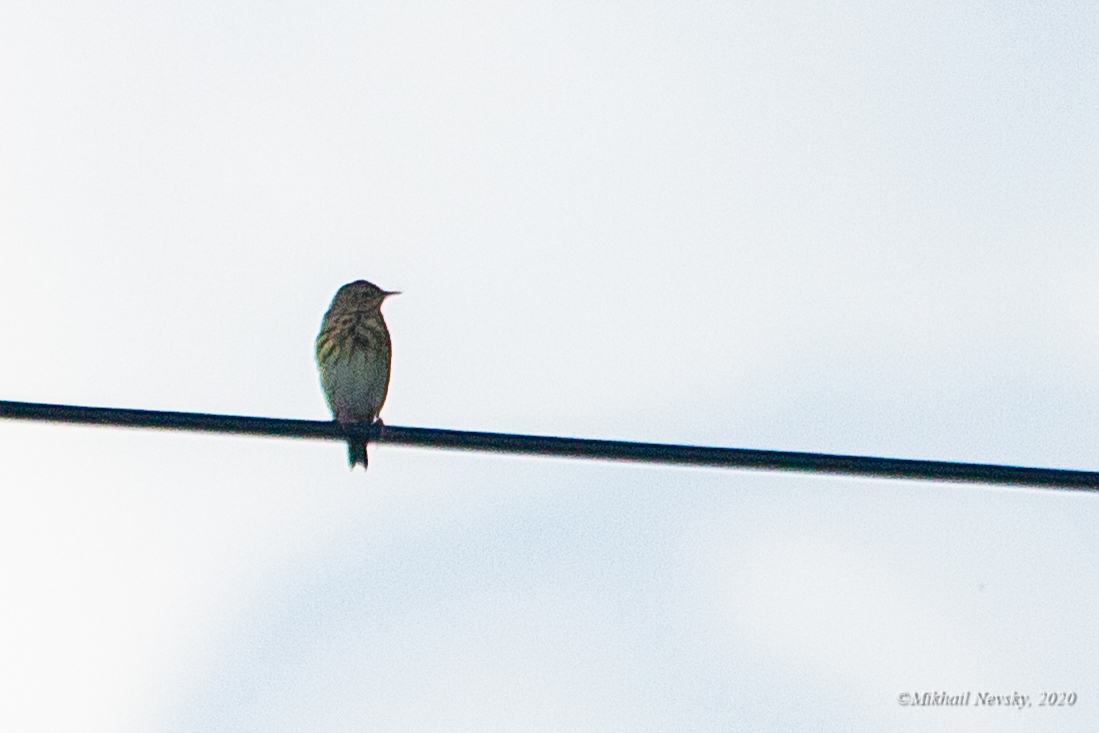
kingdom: Animalia
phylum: Chordata
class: Aves
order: Passeriformes
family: Motacillidae
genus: Anthus
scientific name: Anthus trivialis
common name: Tree pipit
